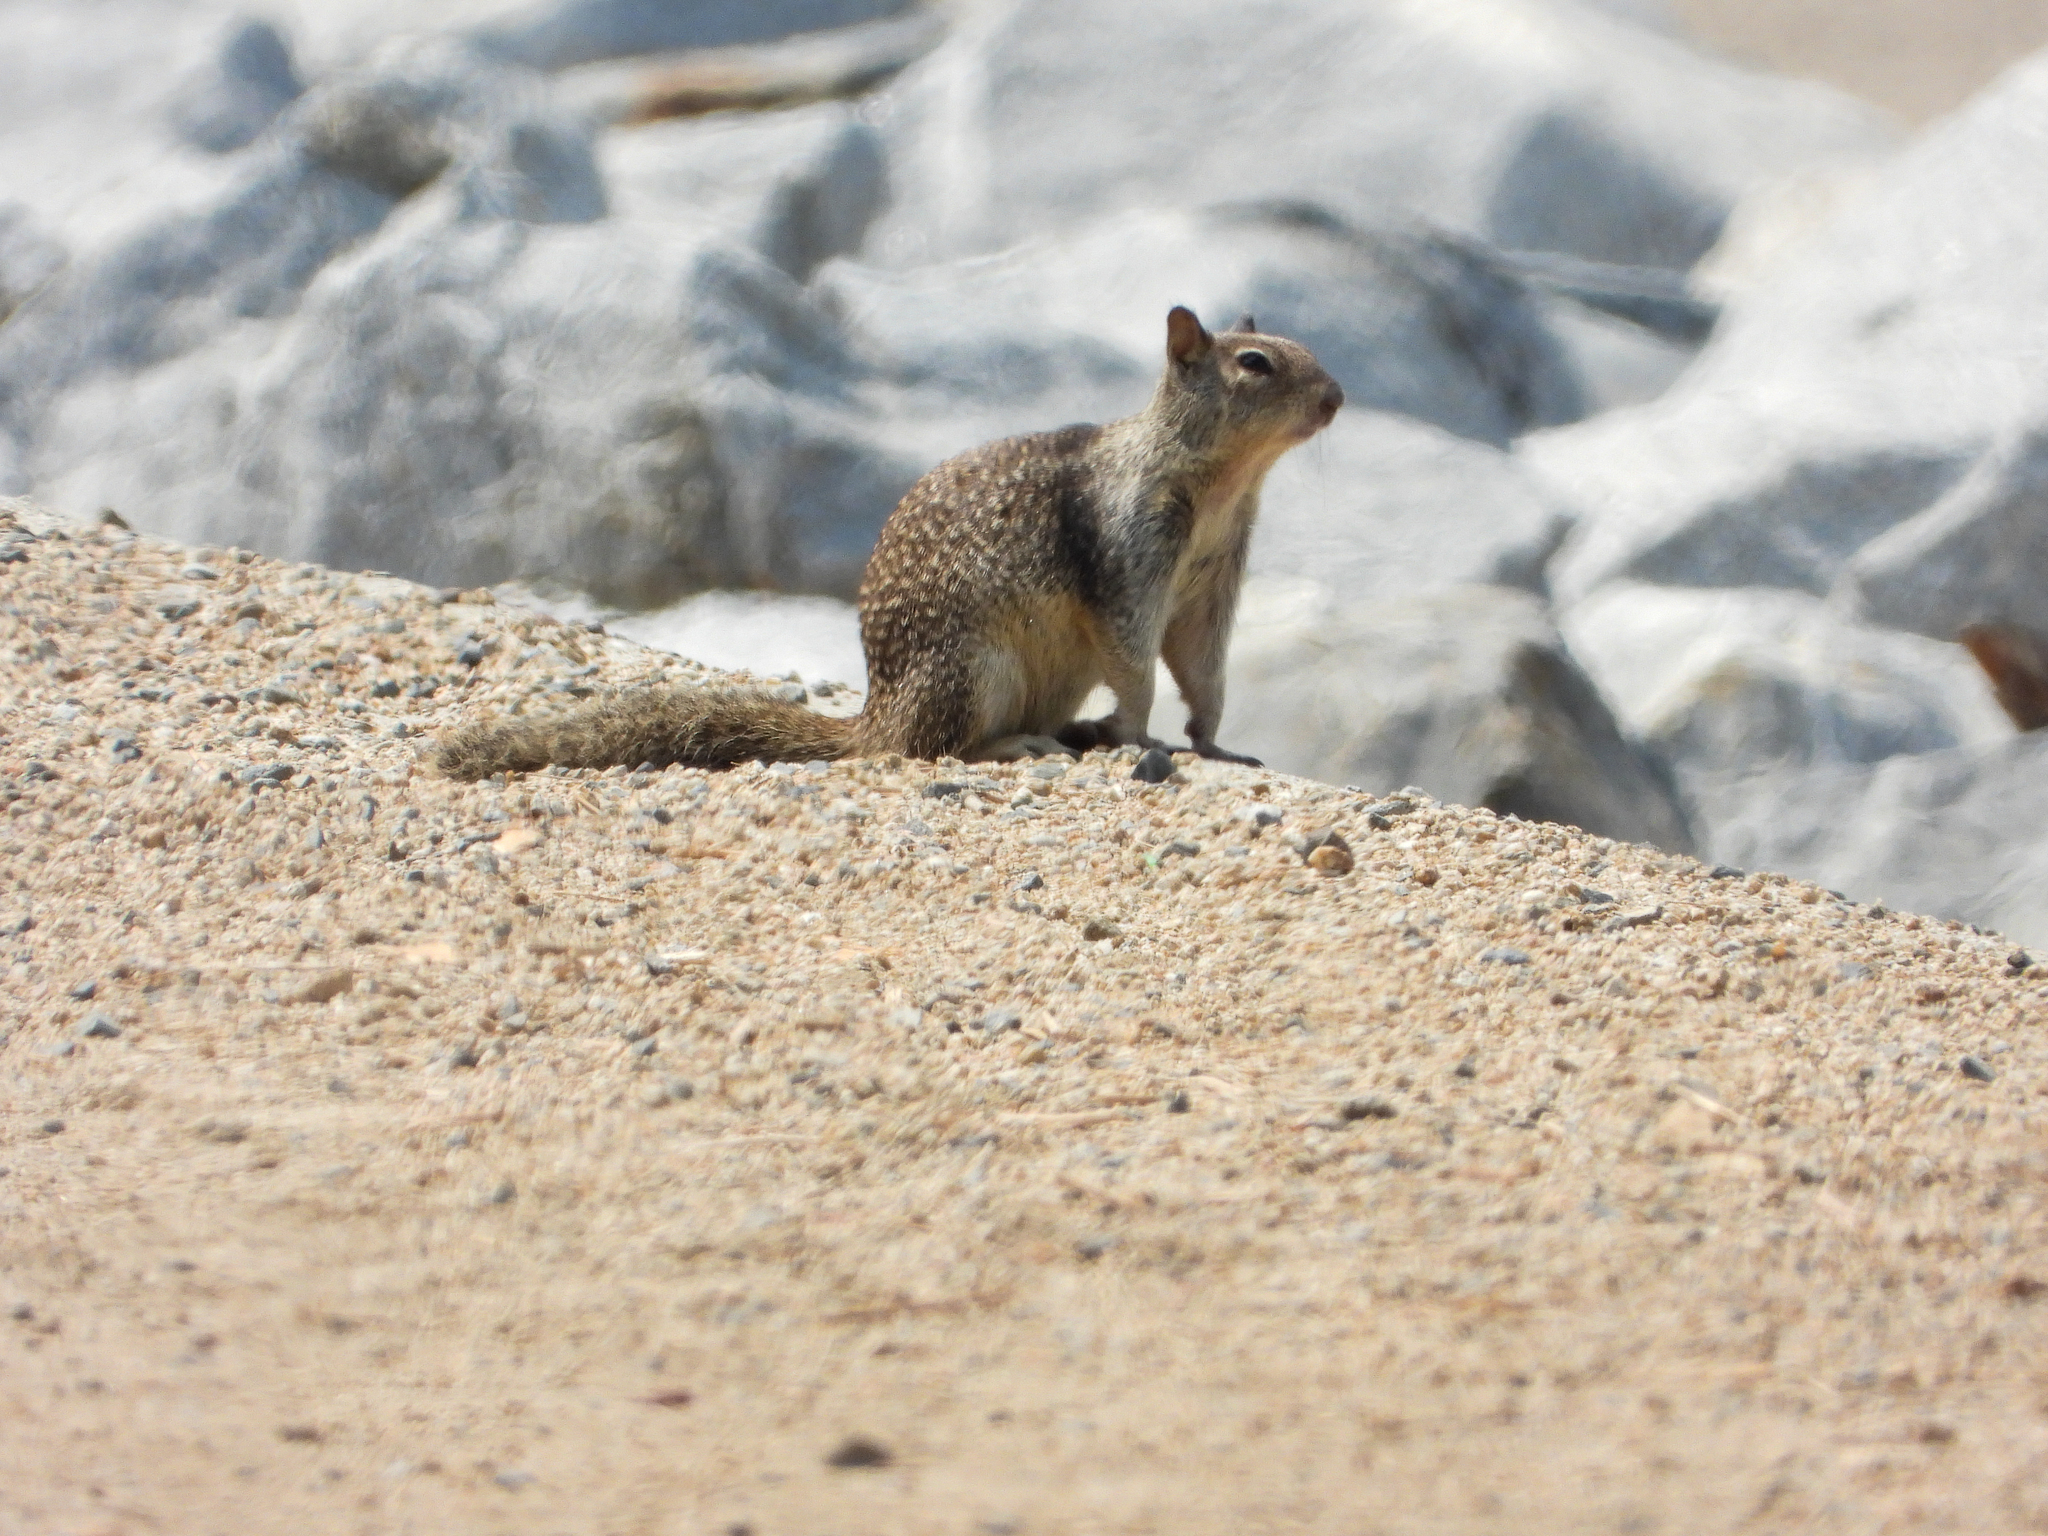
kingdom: Animalia
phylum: Chordata
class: Mammalia
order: Rodentia
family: Sciuridae
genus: Otospermophilus
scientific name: Otospermophilus beecheyi
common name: California ground squirrel
